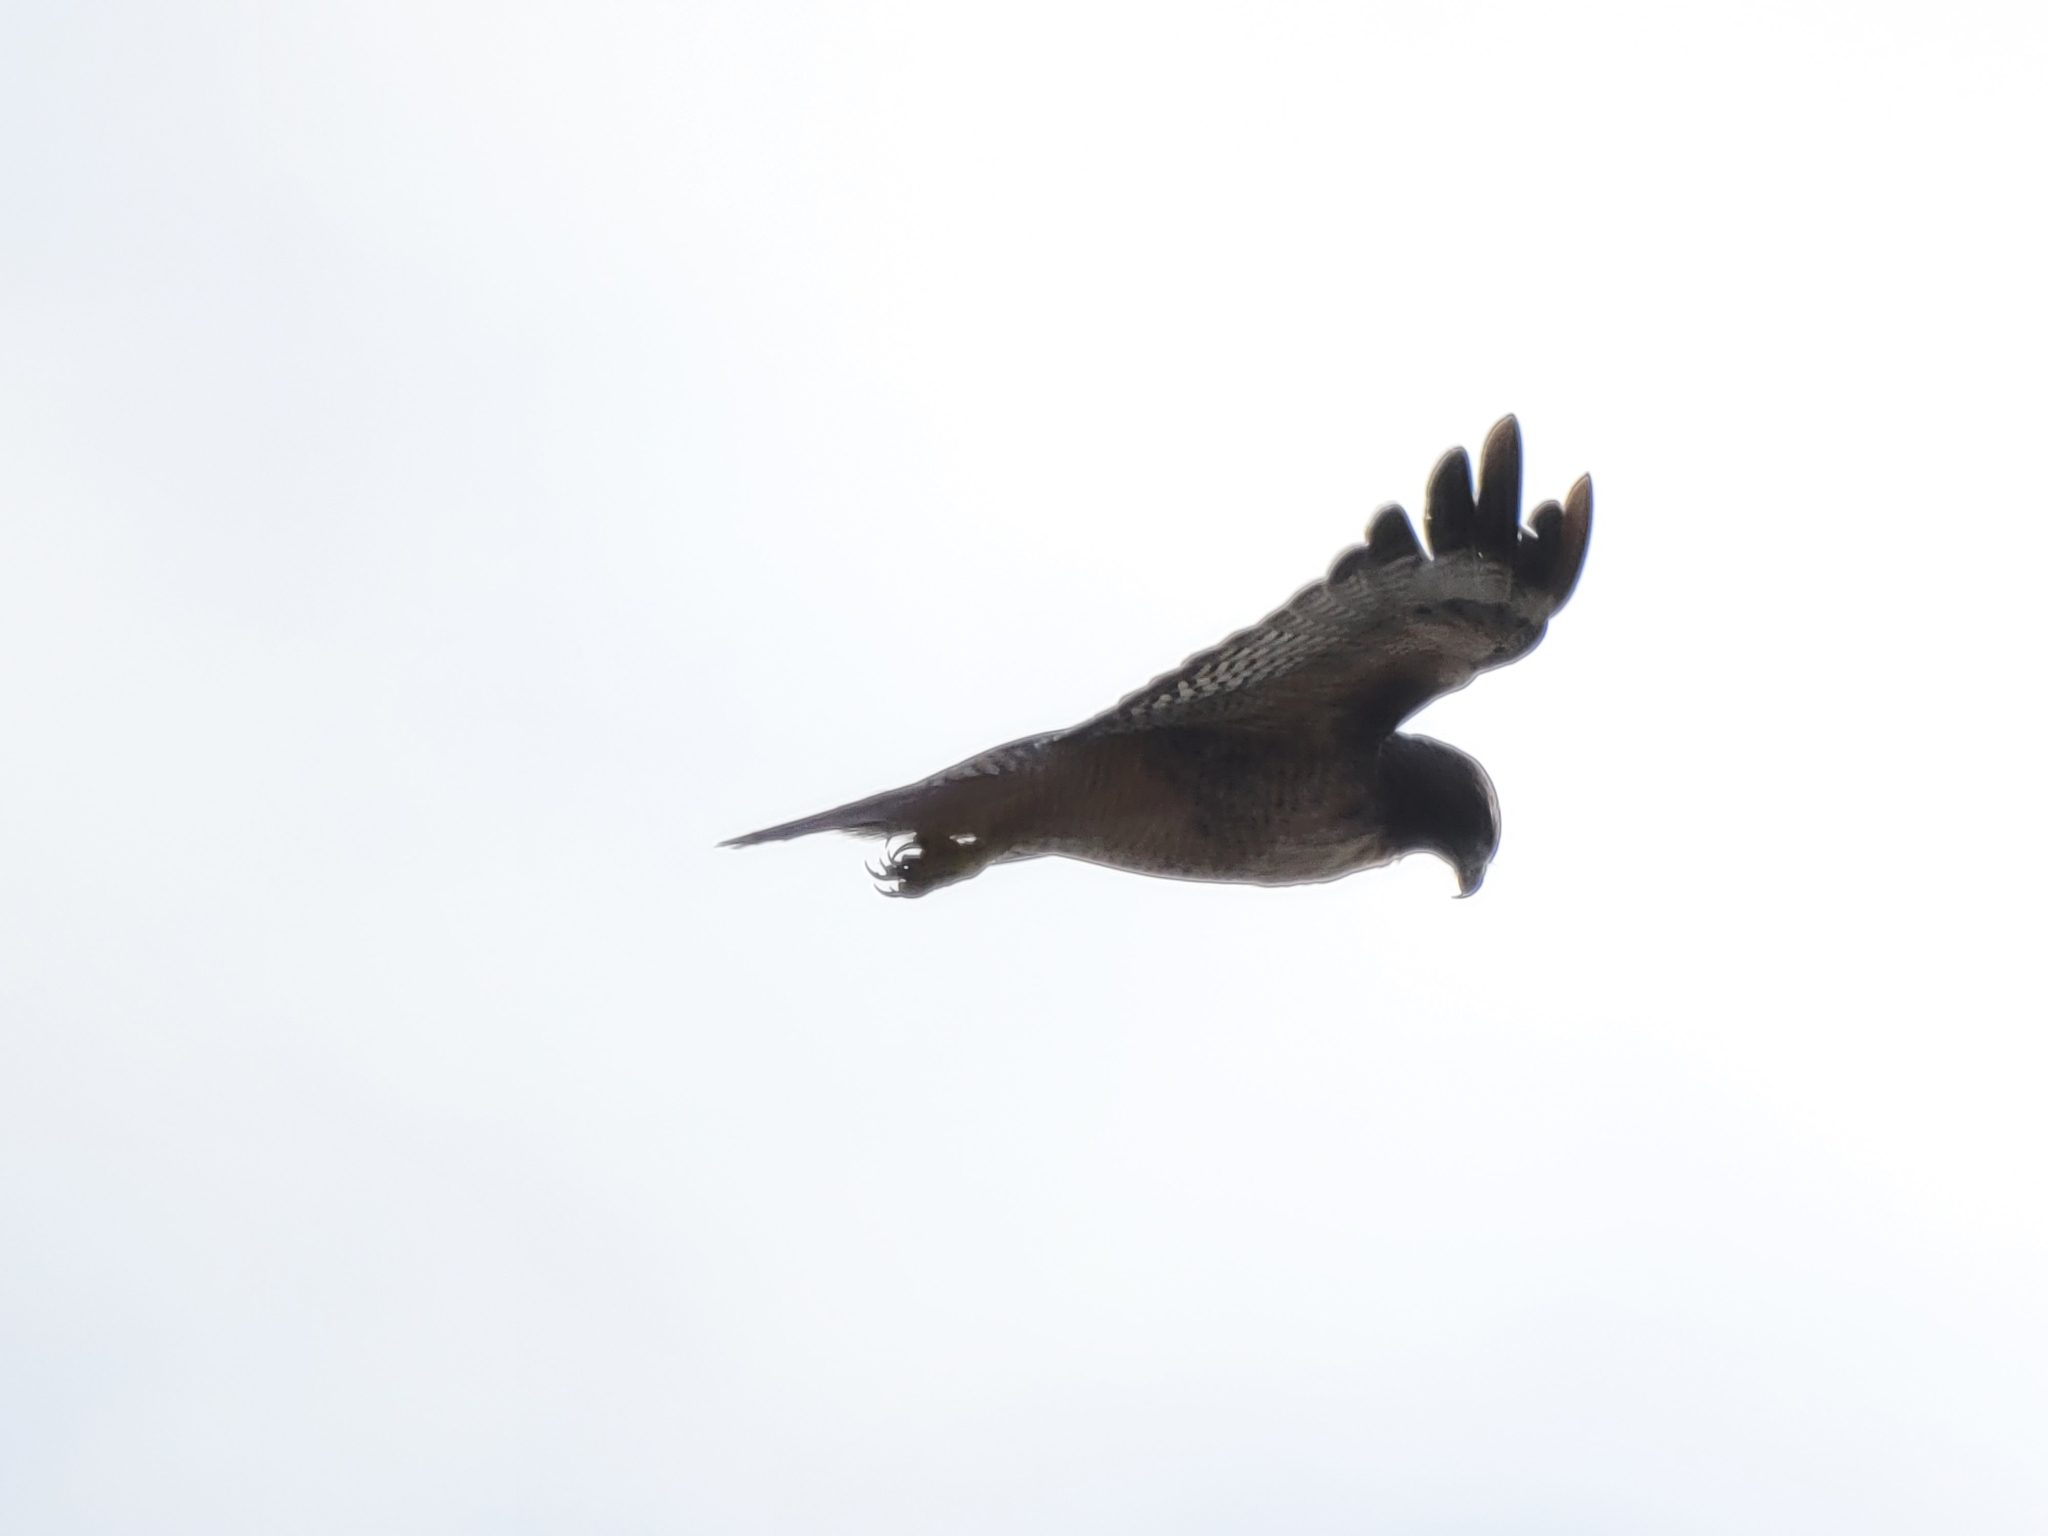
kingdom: Animalia
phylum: Chordata
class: Aves
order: Accipitriformes
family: Accipitridae
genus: Buteo
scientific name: Buteo jamaicensis
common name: Red-tailed hawk
